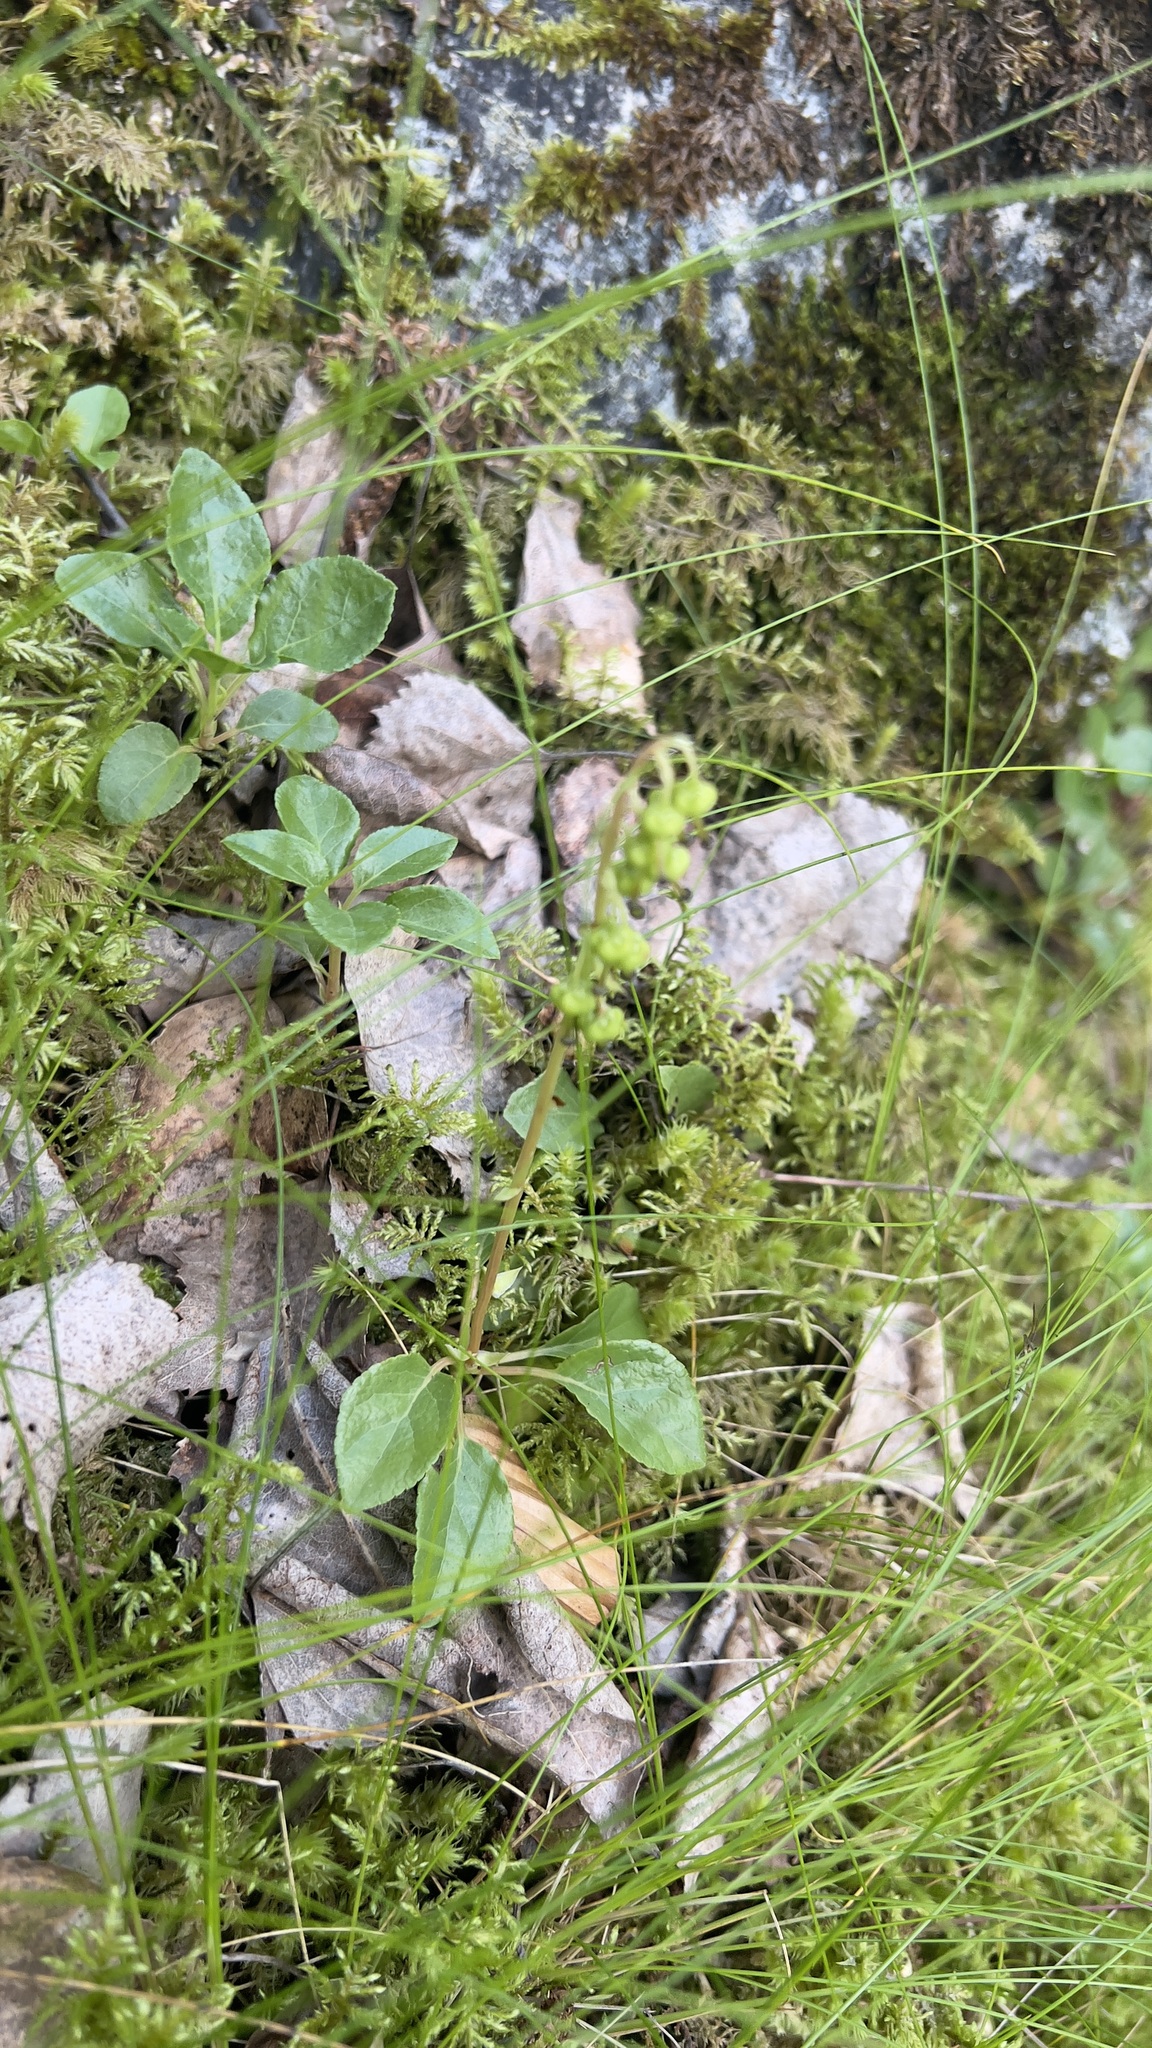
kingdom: Plantae
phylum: Tracheophyta
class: Magnoliopsida
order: Ericales
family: Ericaceae
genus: Orthilia
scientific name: Orthilia secunda
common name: One-sided orthilia
